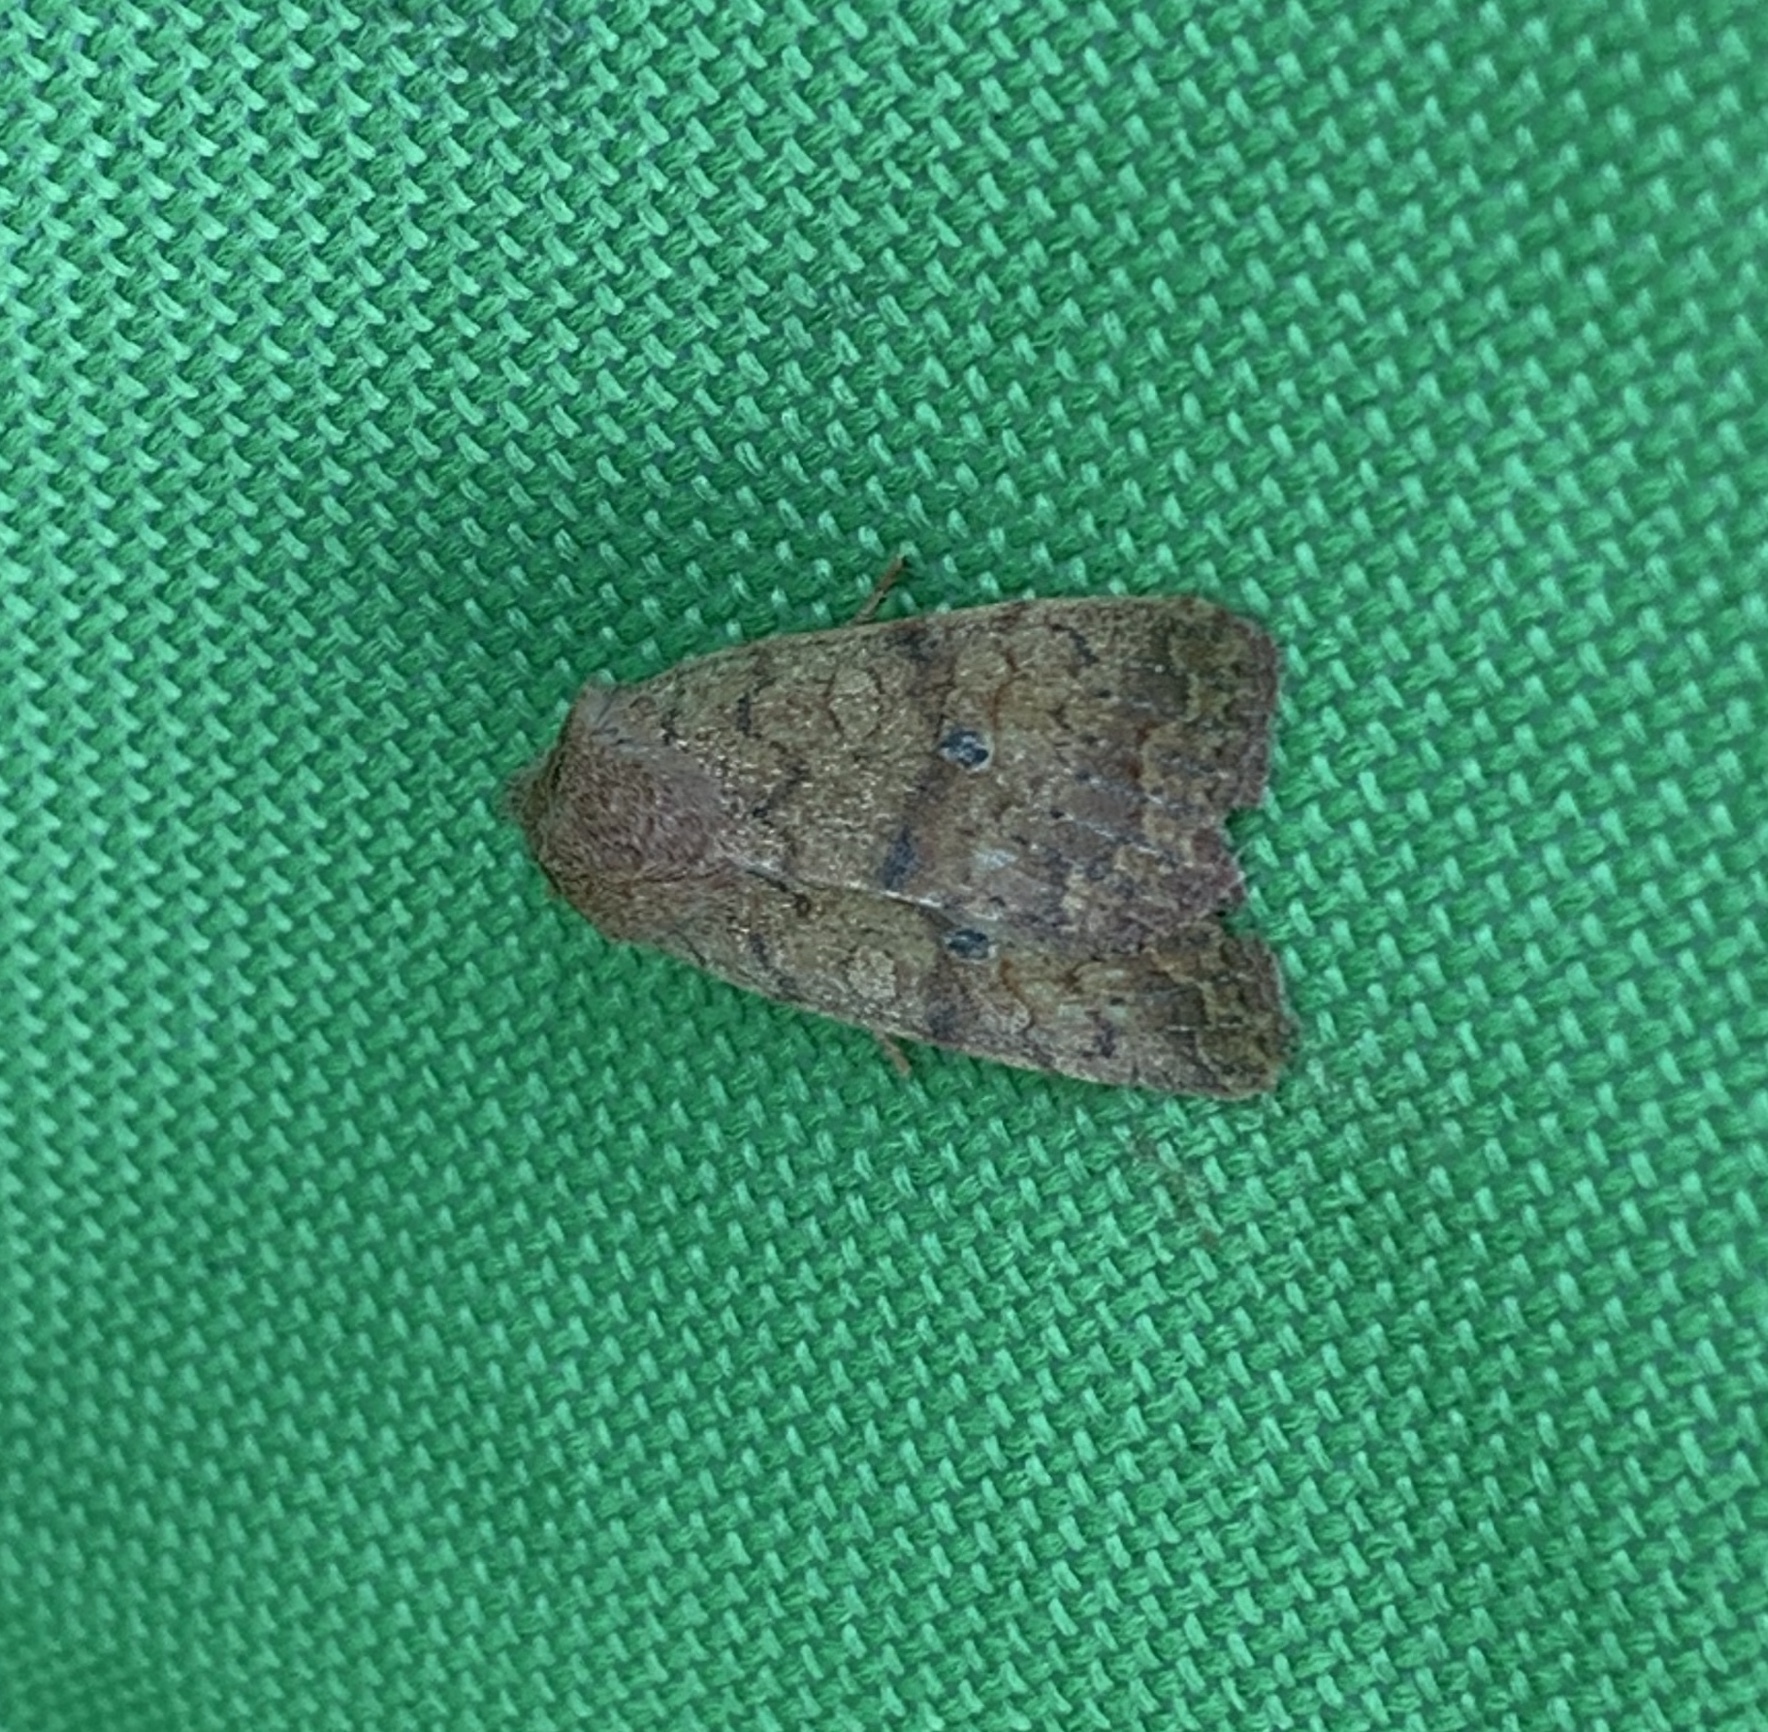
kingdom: Animalia
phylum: Arthropoda
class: Insecta
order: Lepidoptera
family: Noctuidae
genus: Agrochola
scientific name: Agrochola bicolorago
